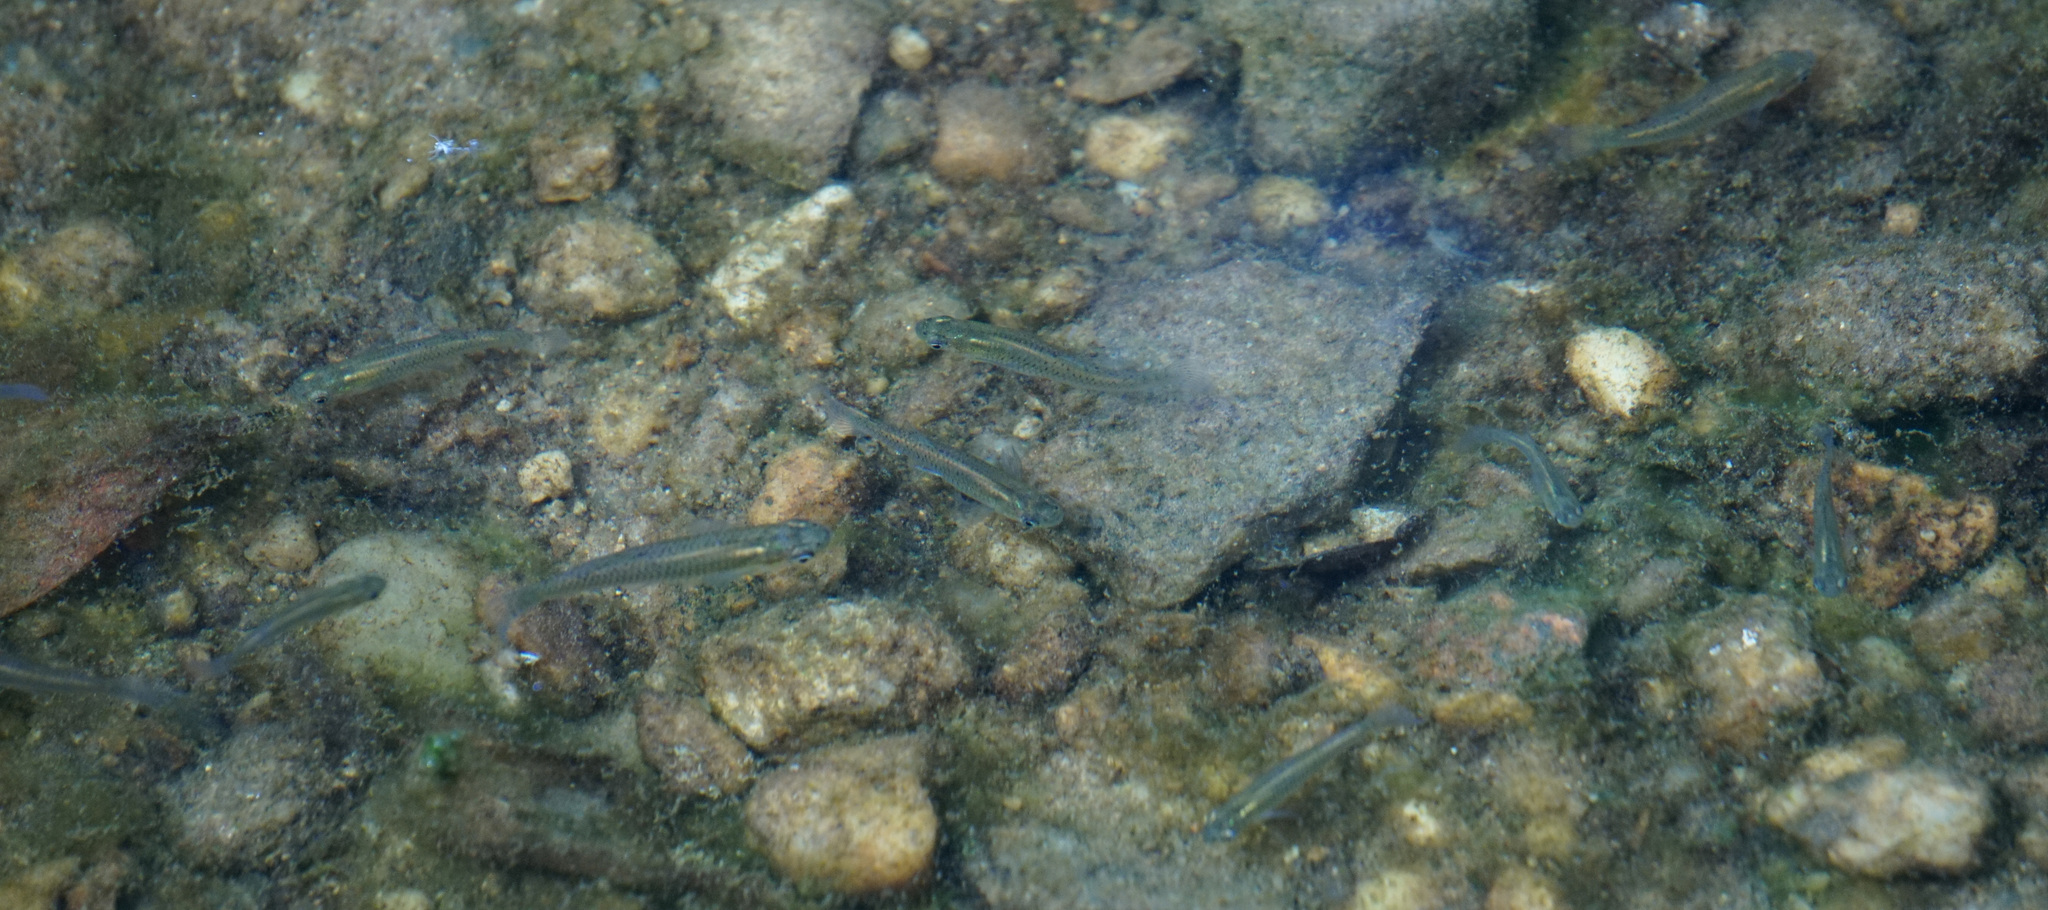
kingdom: Animalia
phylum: Chordata
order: Cyprinodontiformes
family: Poeciliidae
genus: Gambusia
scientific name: Gambusia holbrooki
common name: Eastern mosquitofish
